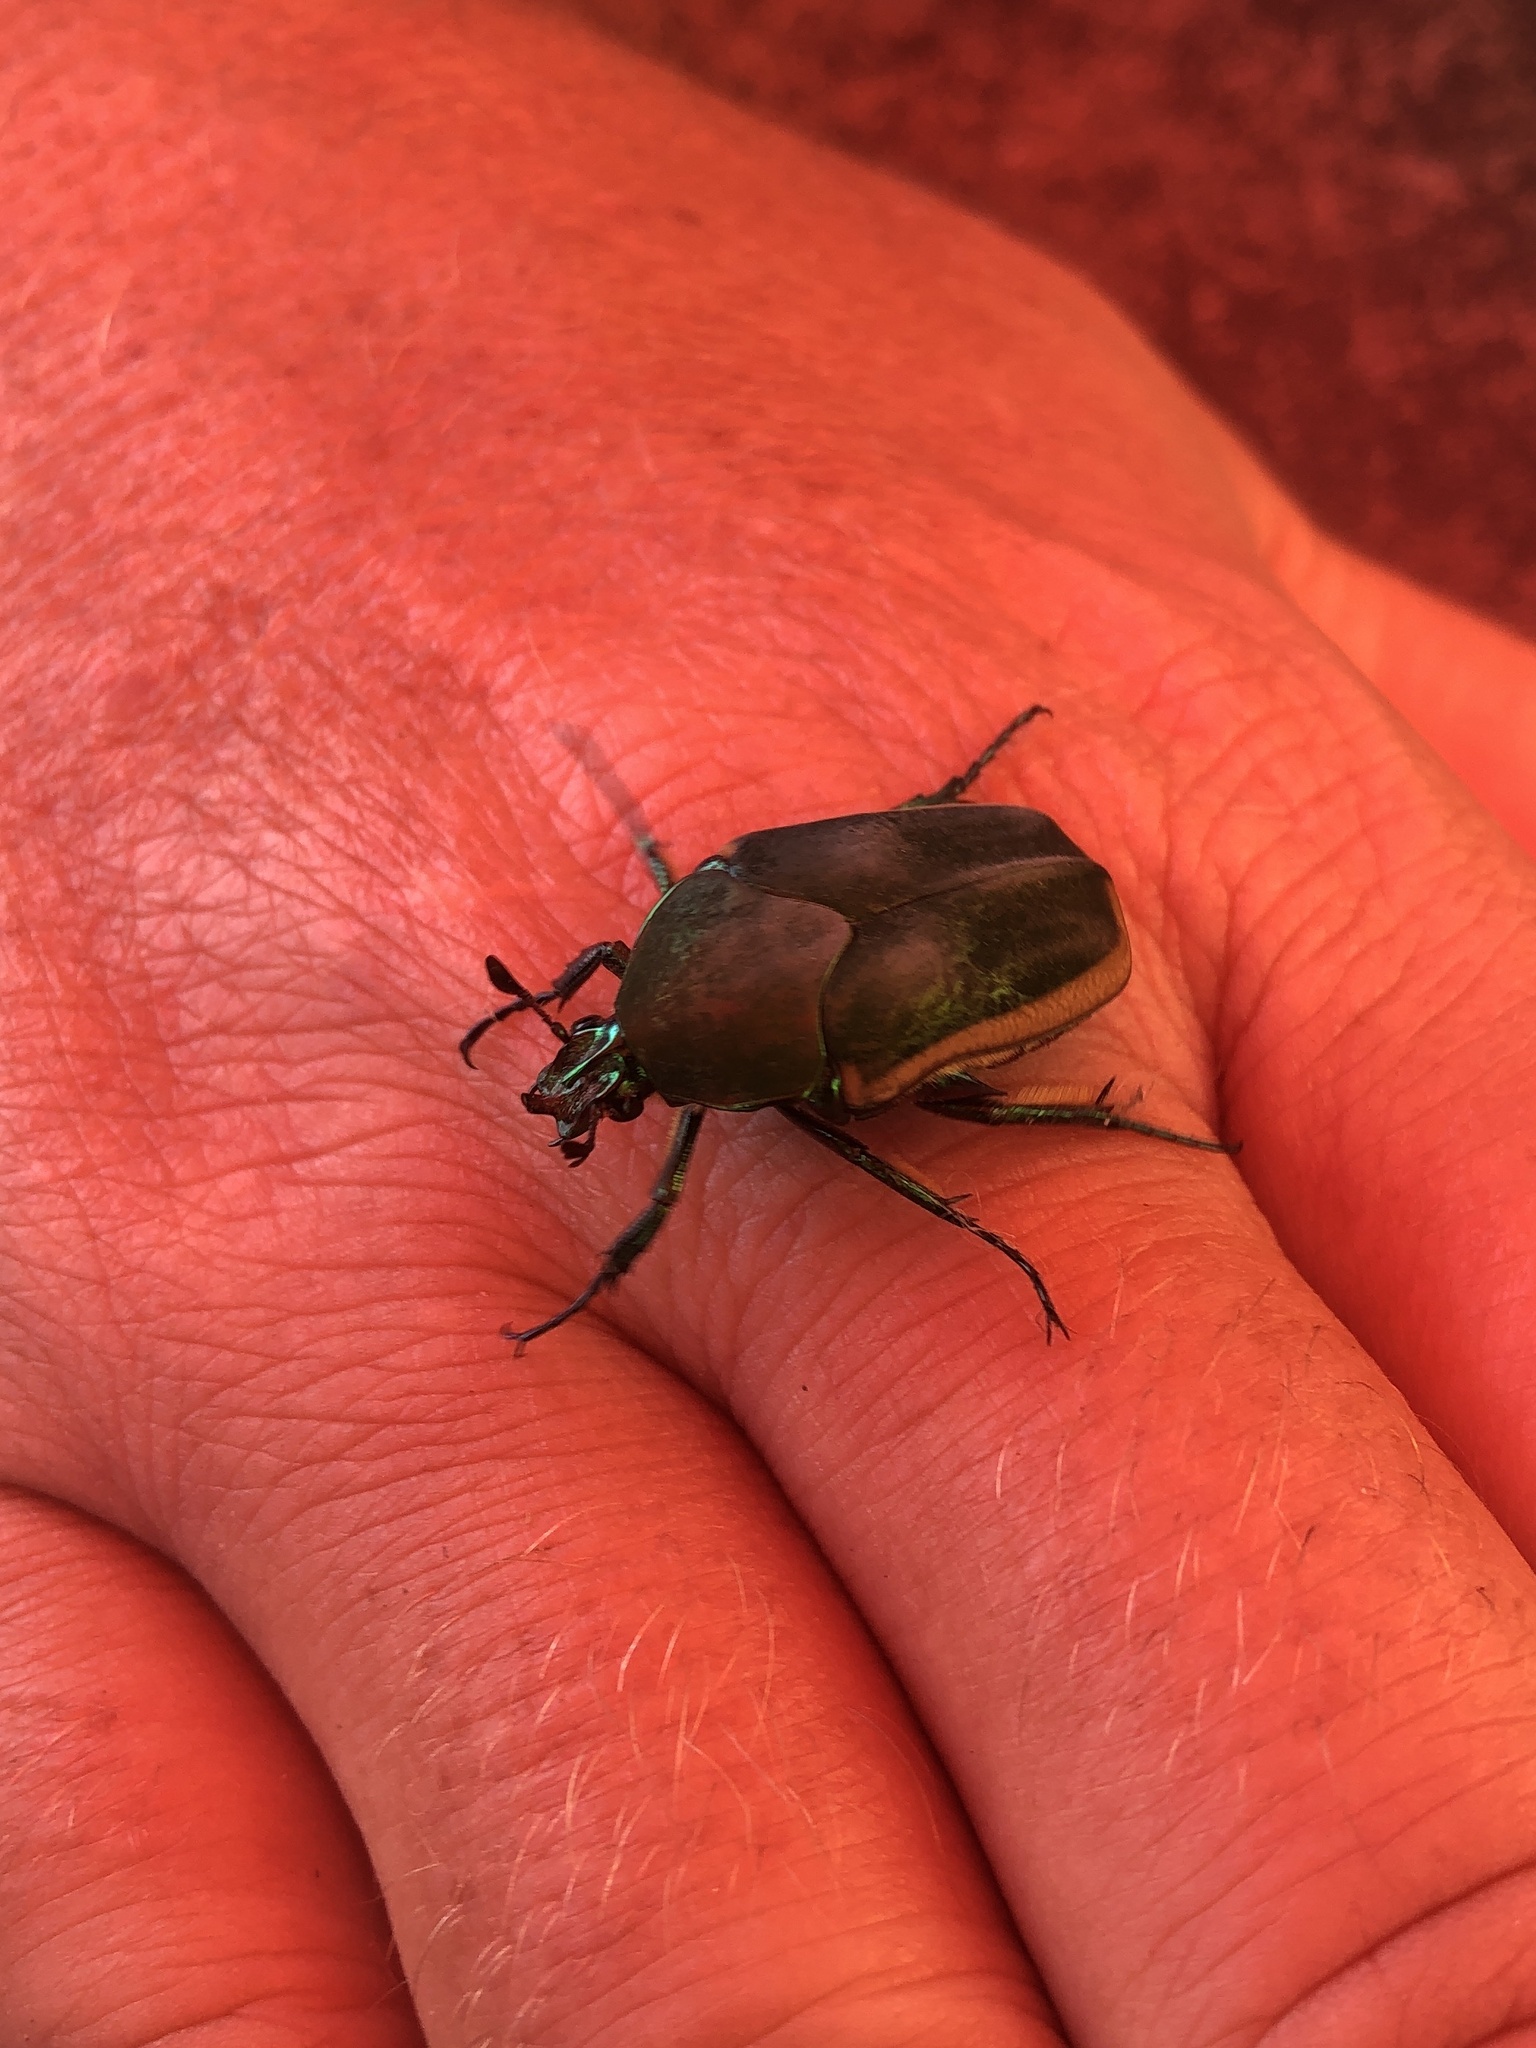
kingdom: Animalia
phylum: Arthropoda
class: Insecta
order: Coleoptera
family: Scarabaeidae
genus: Cotinis
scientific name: Cotinis mutabilis
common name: Figeater beetle
